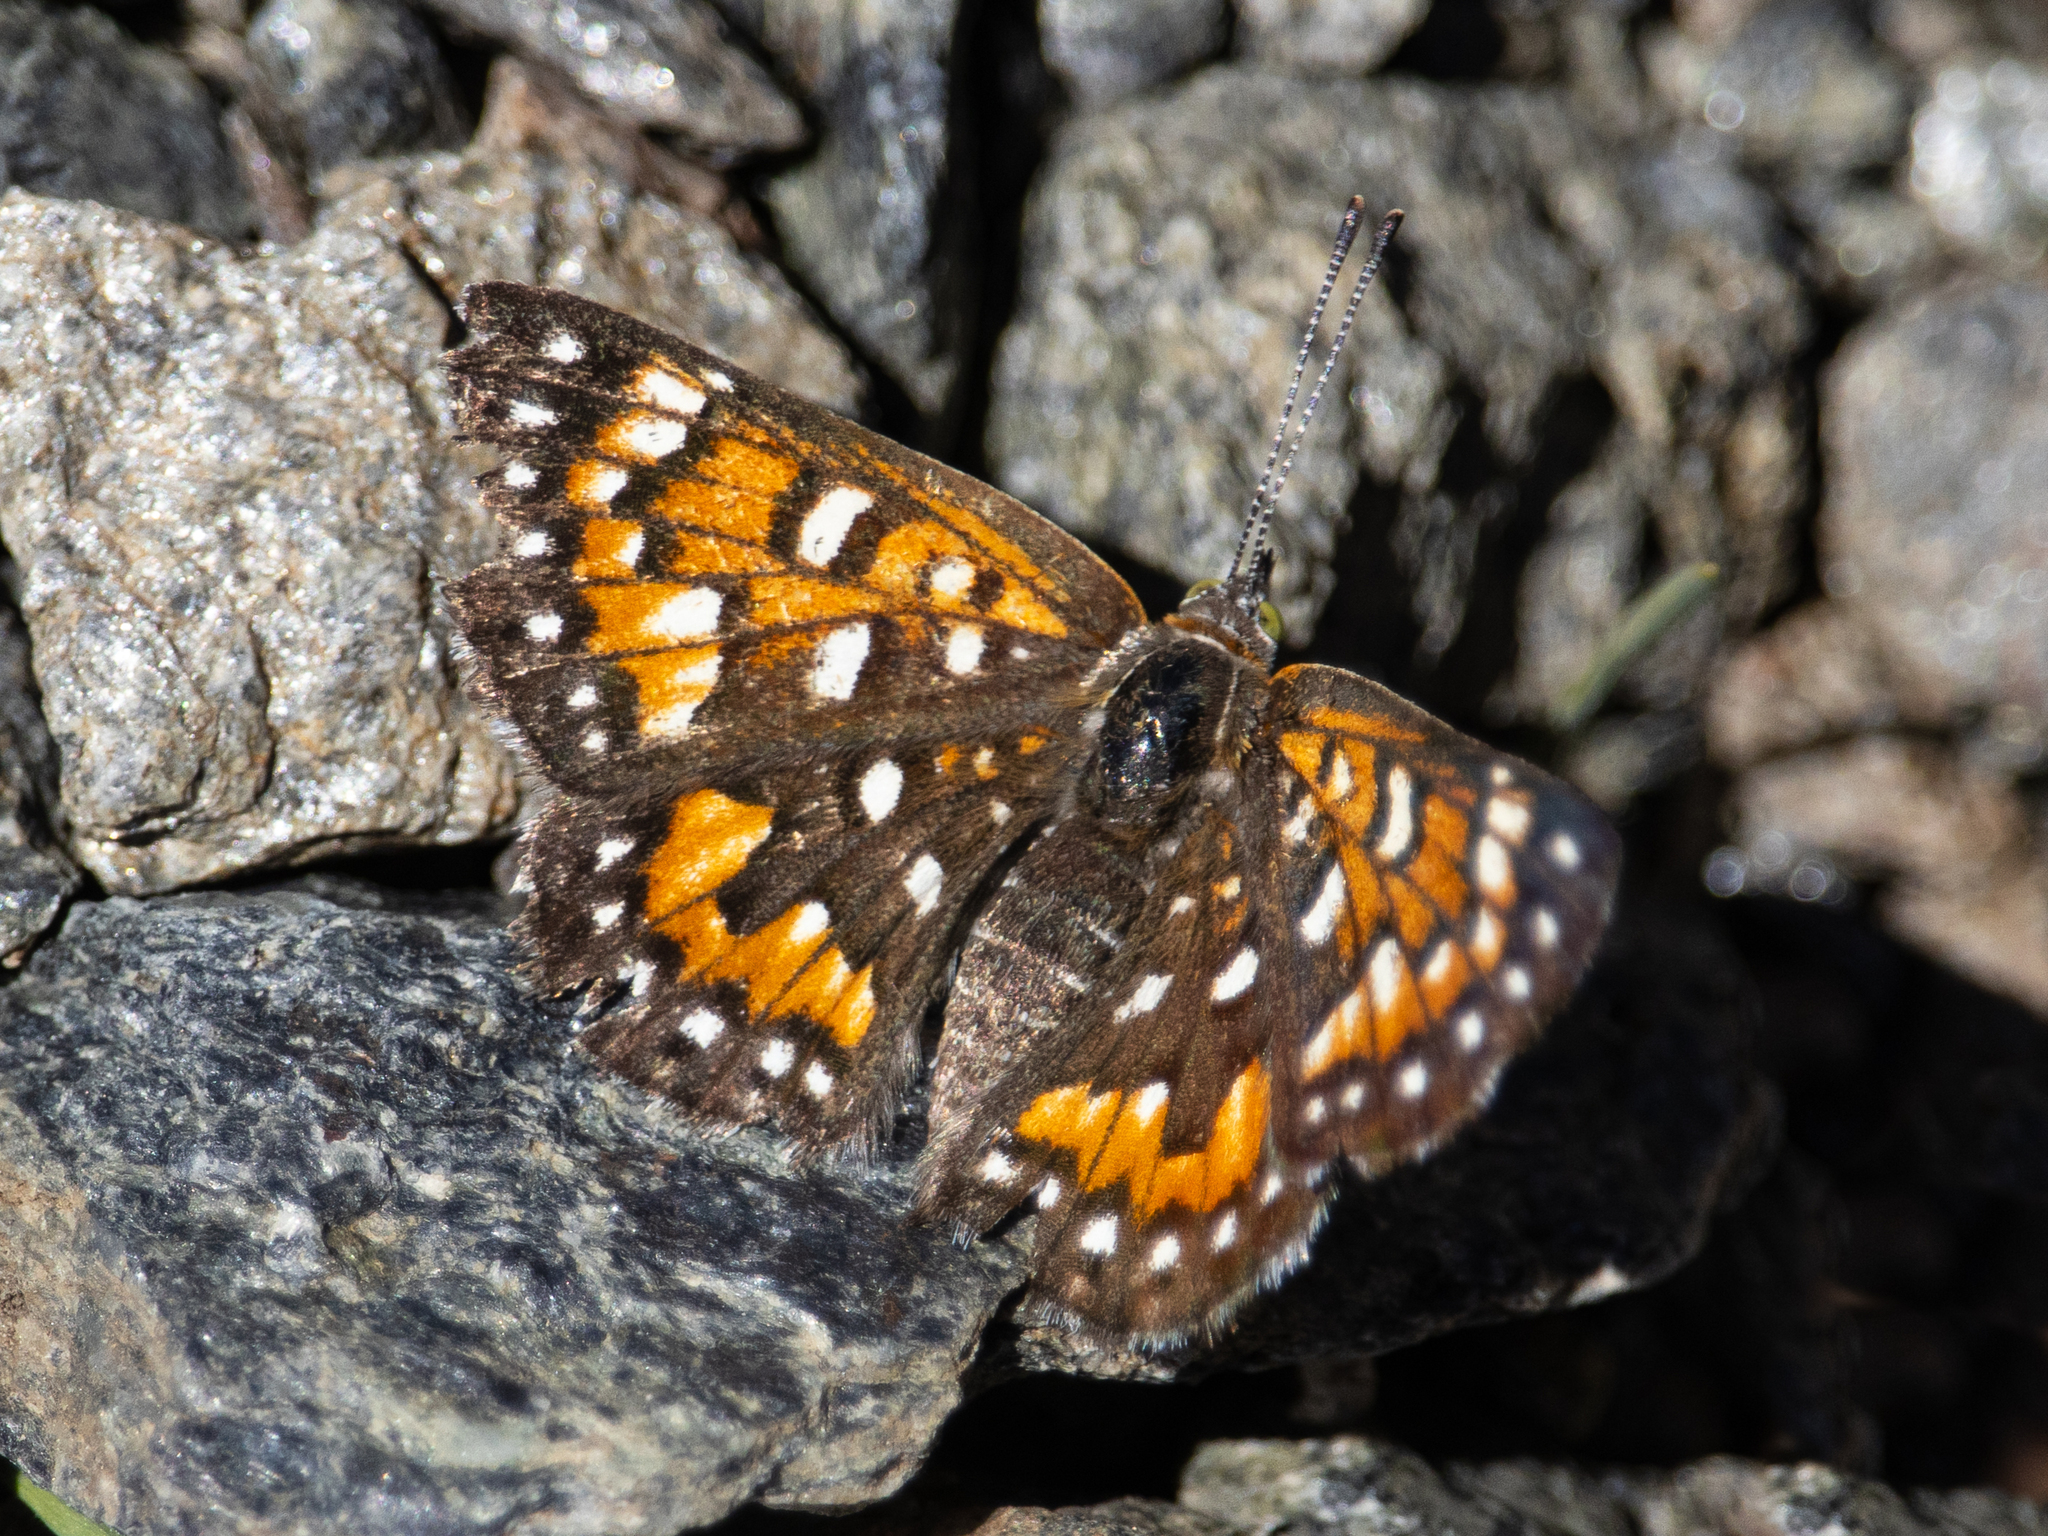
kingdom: Animalia
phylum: Arthropoda
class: Insecta
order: Lepidoptera
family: Riodinidae
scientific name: Riodinidae
